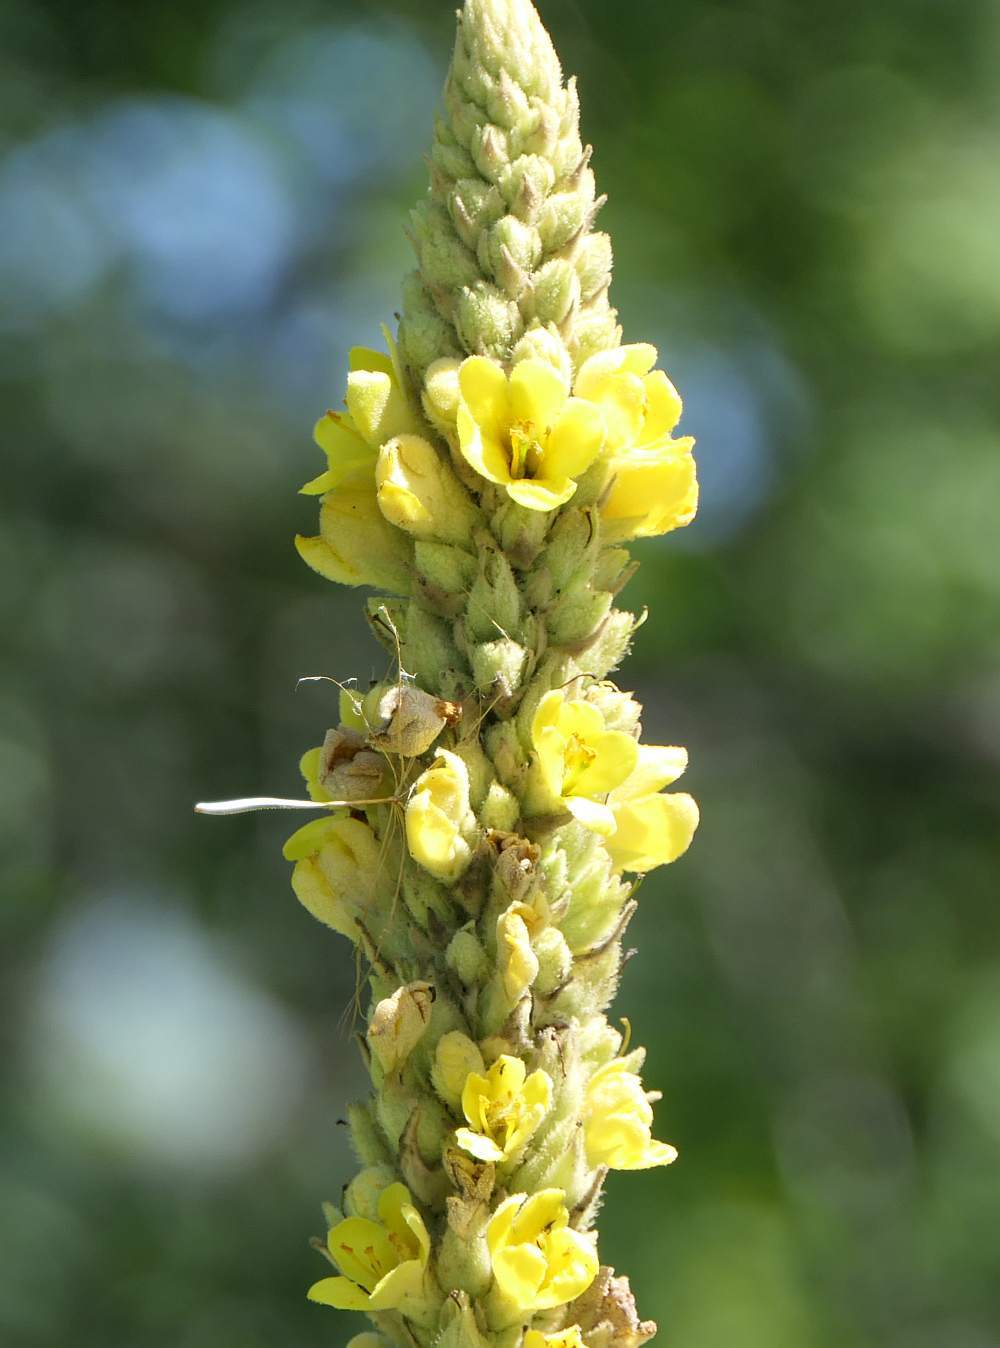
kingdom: Plantae
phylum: Tracheophyta
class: Magnoliopsida
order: Lamiales
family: Scrophulariaceae
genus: Verbascum
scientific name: Verbascum thapsus
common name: Common mullein
